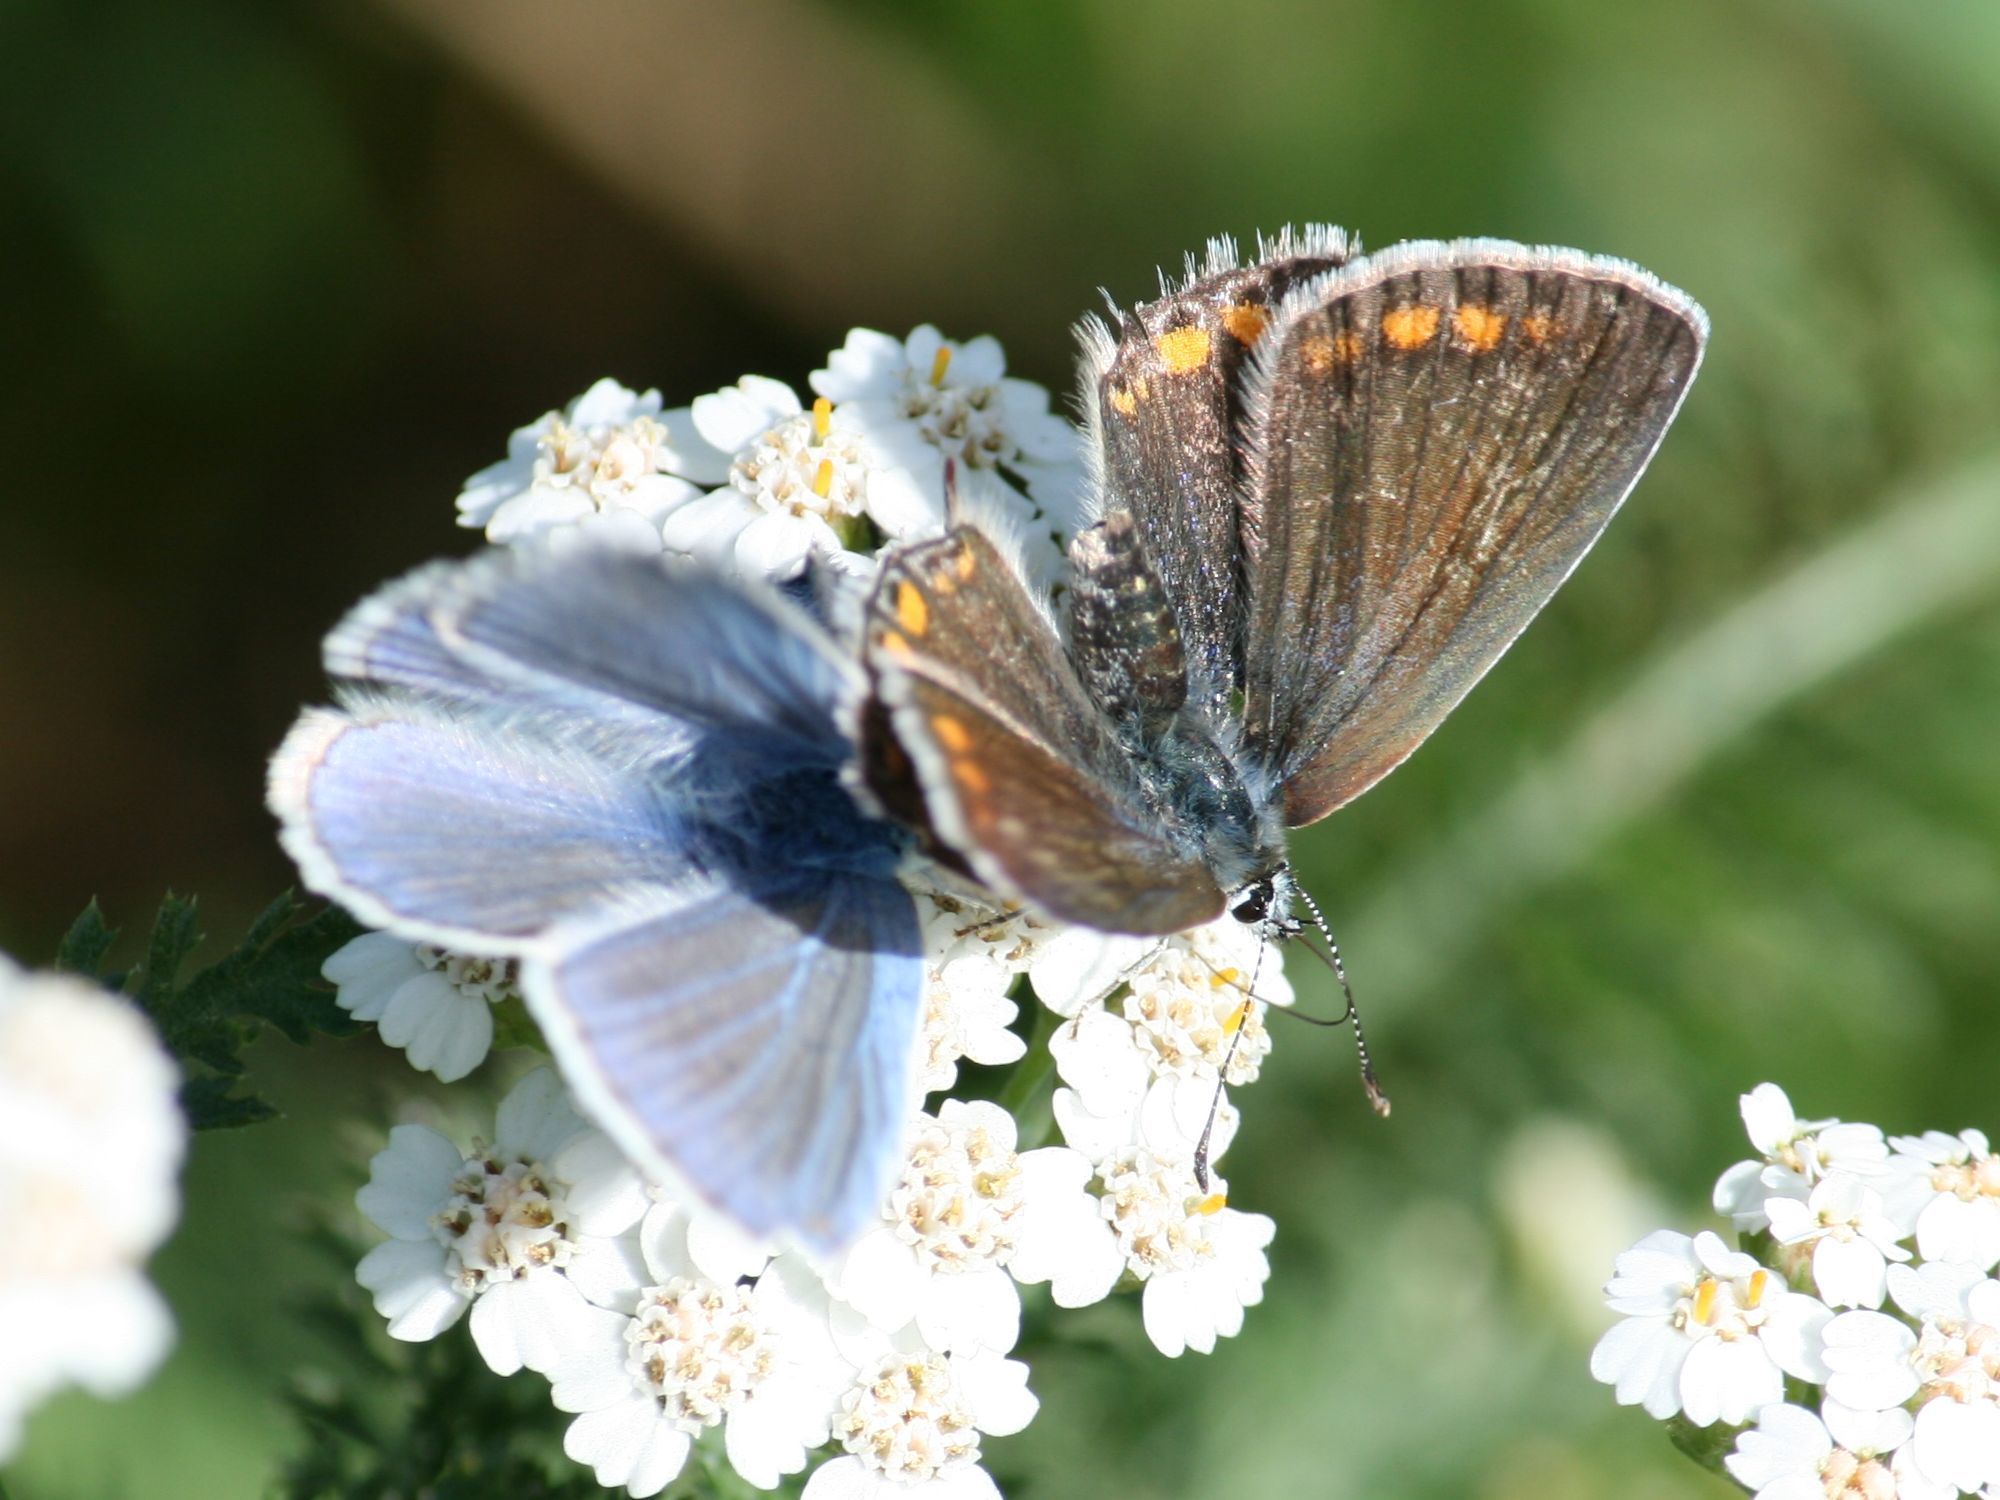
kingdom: Animalia
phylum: Arthropoda
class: Insecta
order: Lepidoptera
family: Lycaenidae
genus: Polyommatus
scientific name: Polyommatus icarus
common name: Common blue
